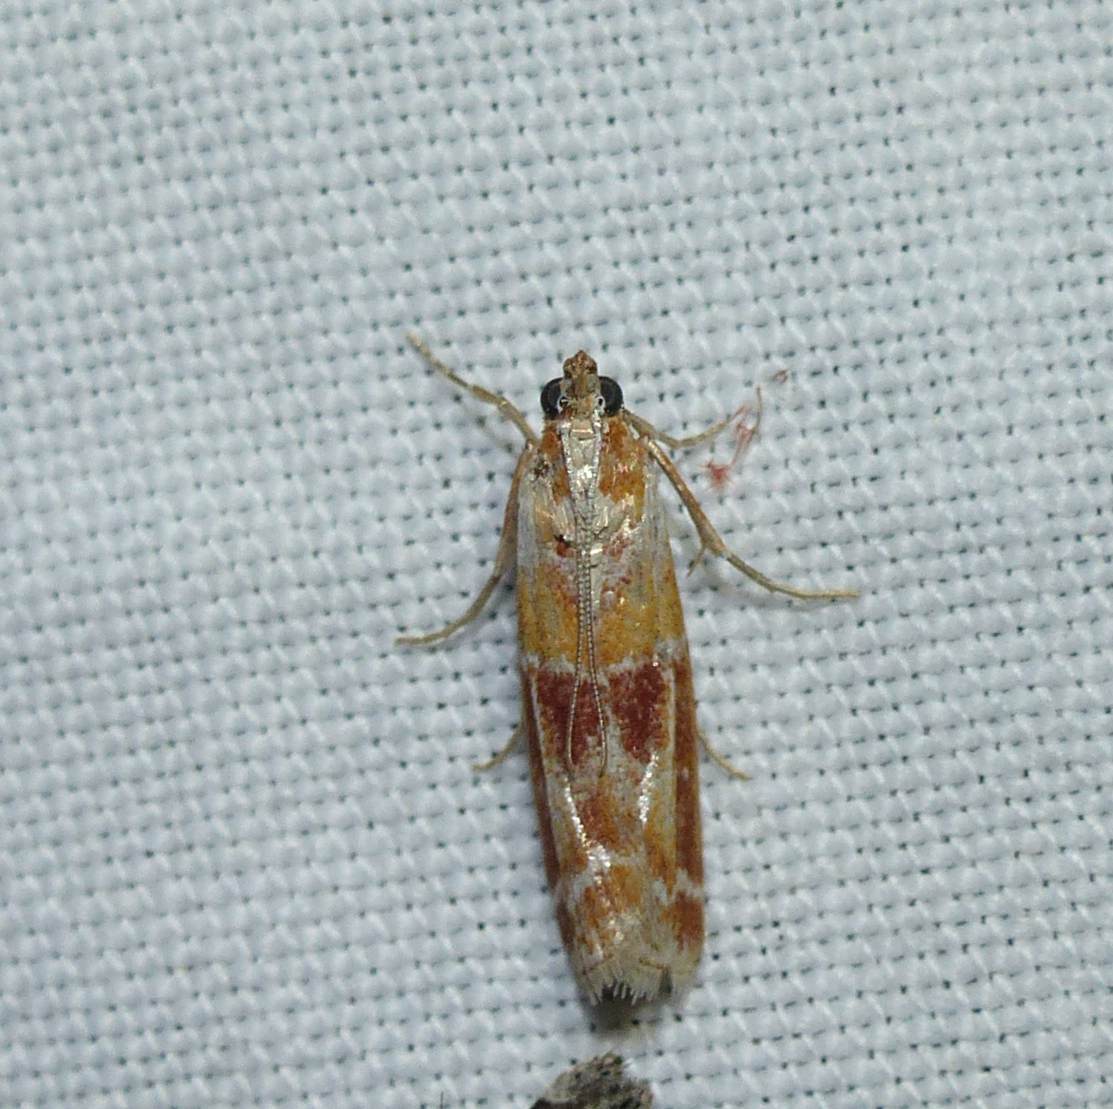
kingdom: Animalia
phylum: Arthropoda
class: Insecta
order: Lepidoptera
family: Pyralidae
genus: Dioryctria
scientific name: Dioryctria disclusa
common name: Rusty pine cone moth
